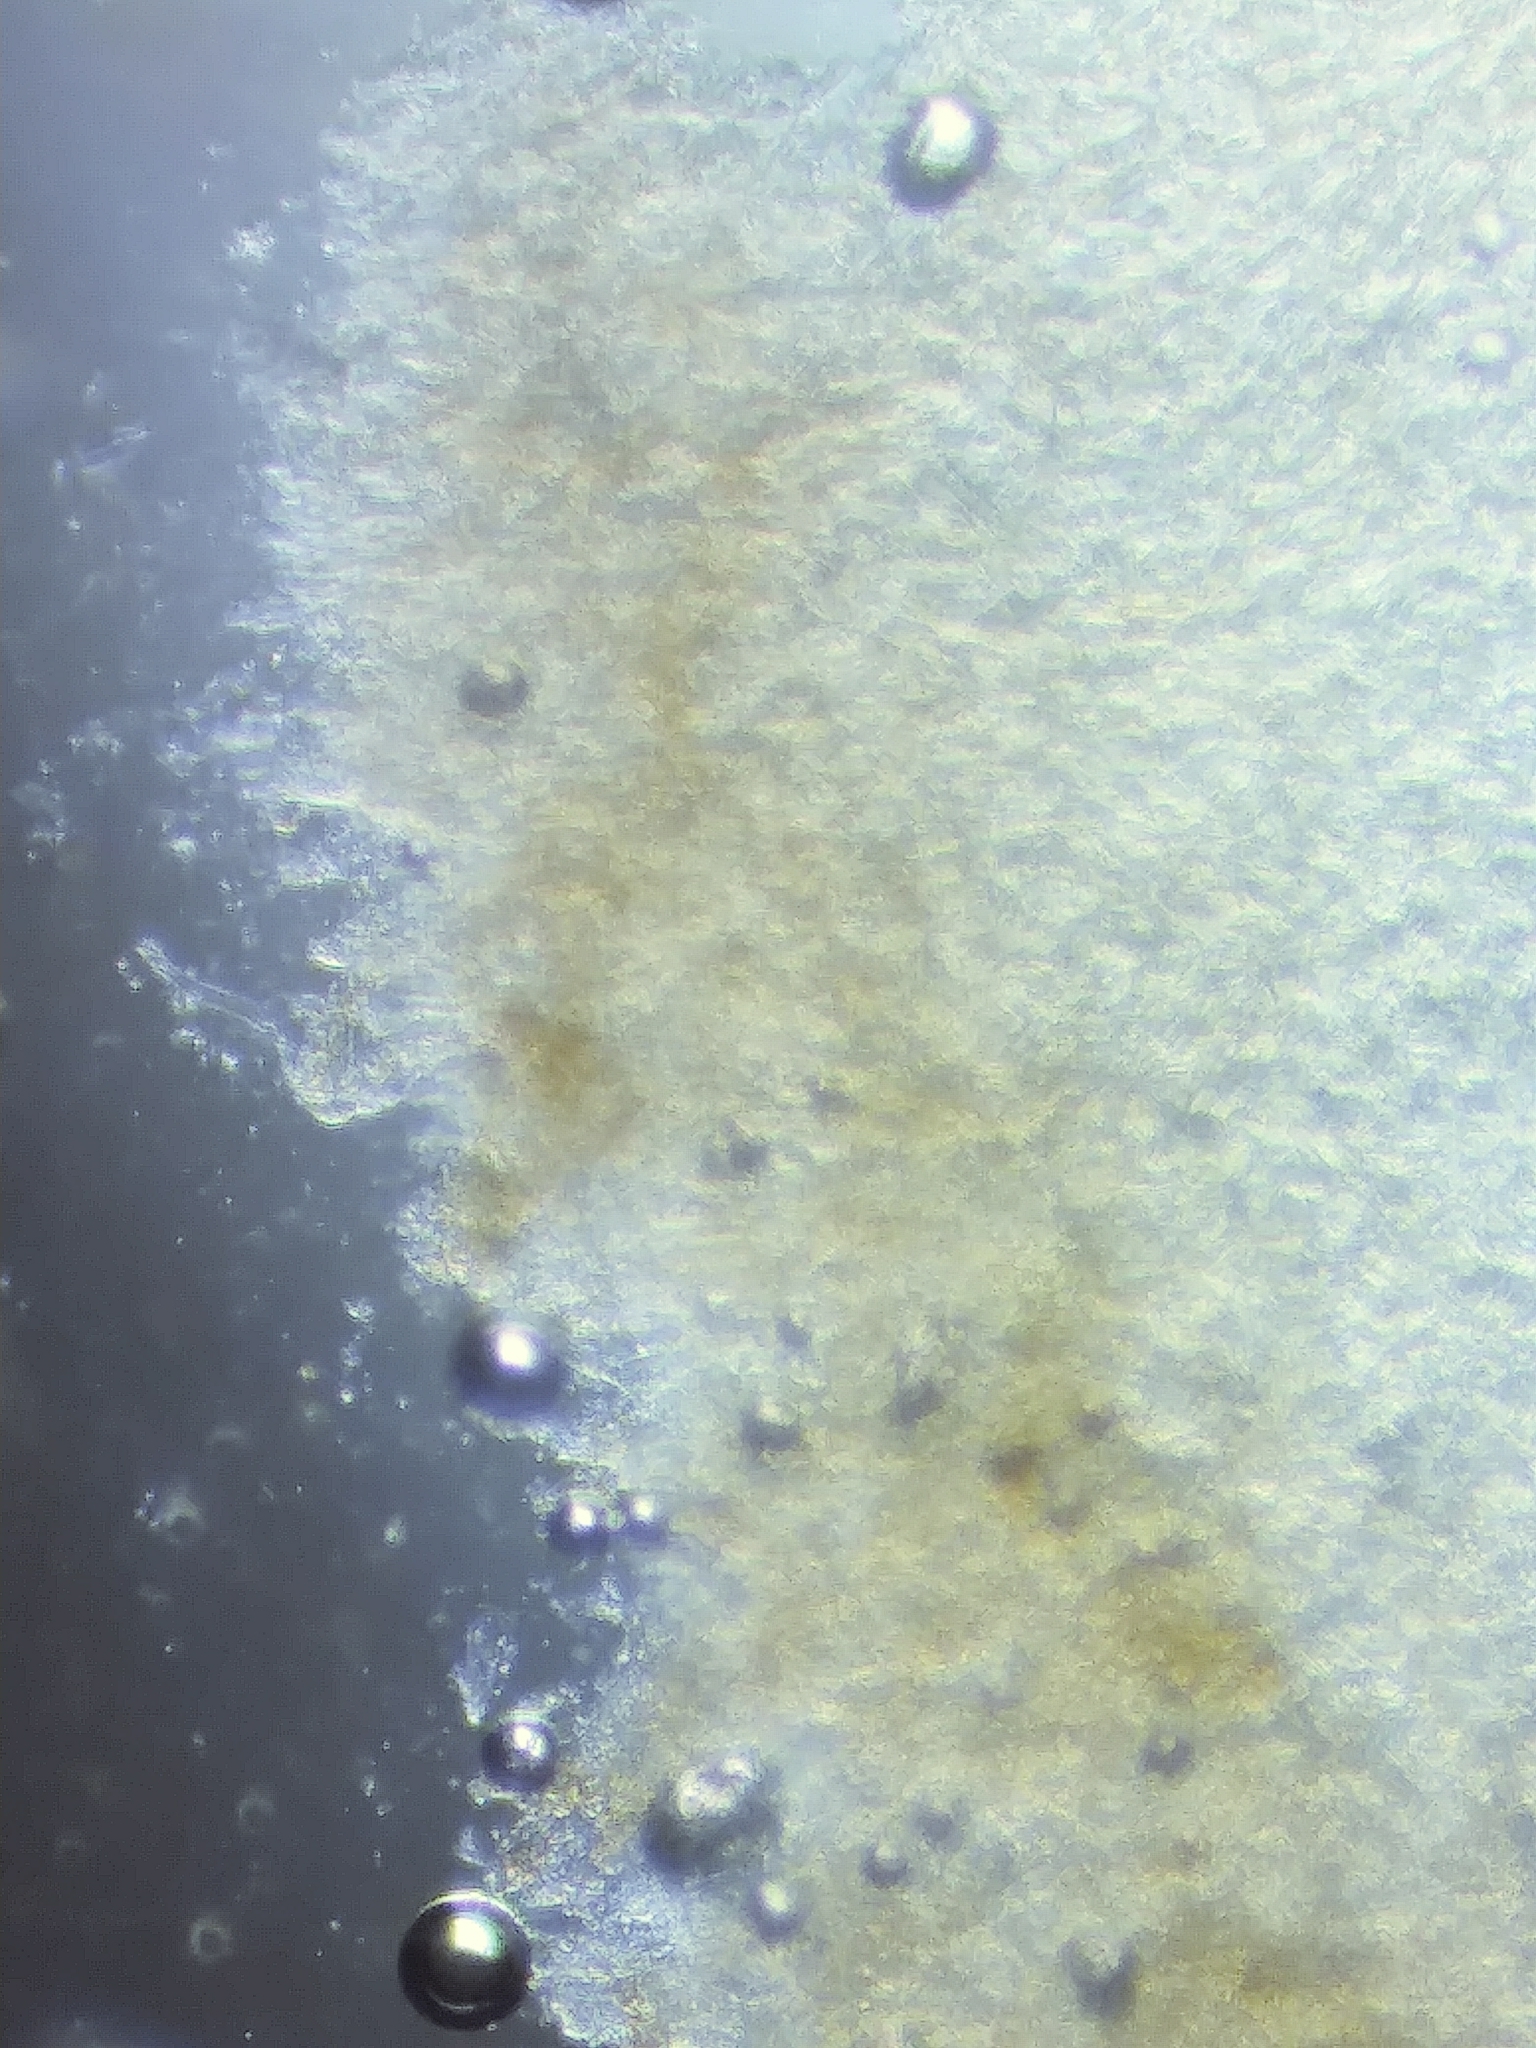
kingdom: Fungi
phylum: Basidiomycota
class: Agaricomycetes
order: Agaricales
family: Omphalotaceae
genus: Gymnopus
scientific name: Gymnopus foetidus
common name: Foetid parachute
